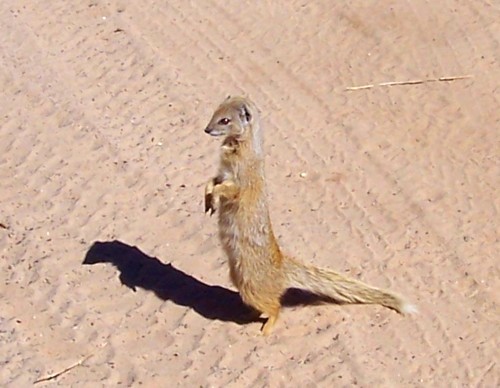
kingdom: Animalia
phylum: Chordata
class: Mammalia
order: Carnivora
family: Herpestidae
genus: Cynictis
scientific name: Cynictis penicillata
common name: Yellow mongoose
